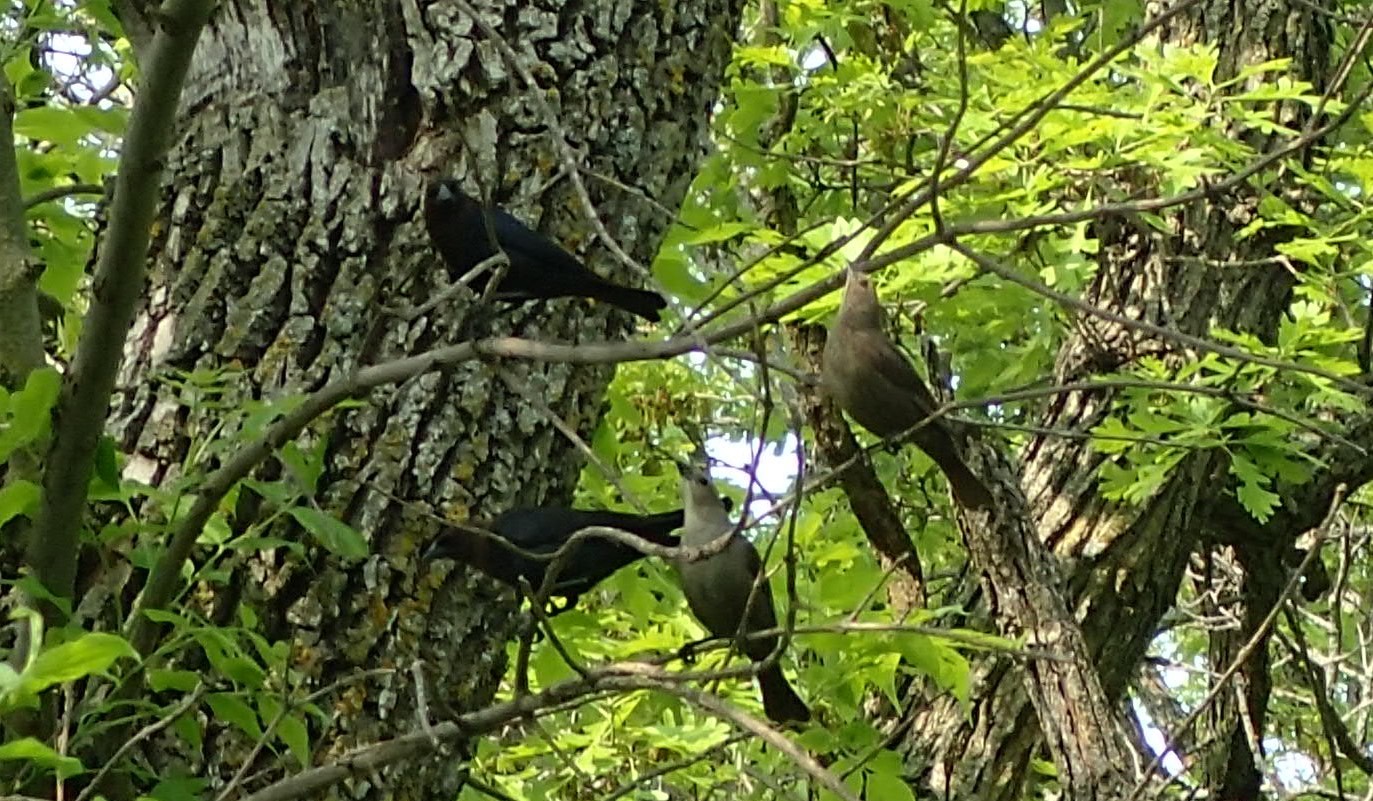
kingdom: Animalia
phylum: Chordata
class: Aves
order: Passeriformes
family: Icteridae
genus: Euphagus
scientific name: Euphagus cyanocephalus
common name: Brewer's blackbird
